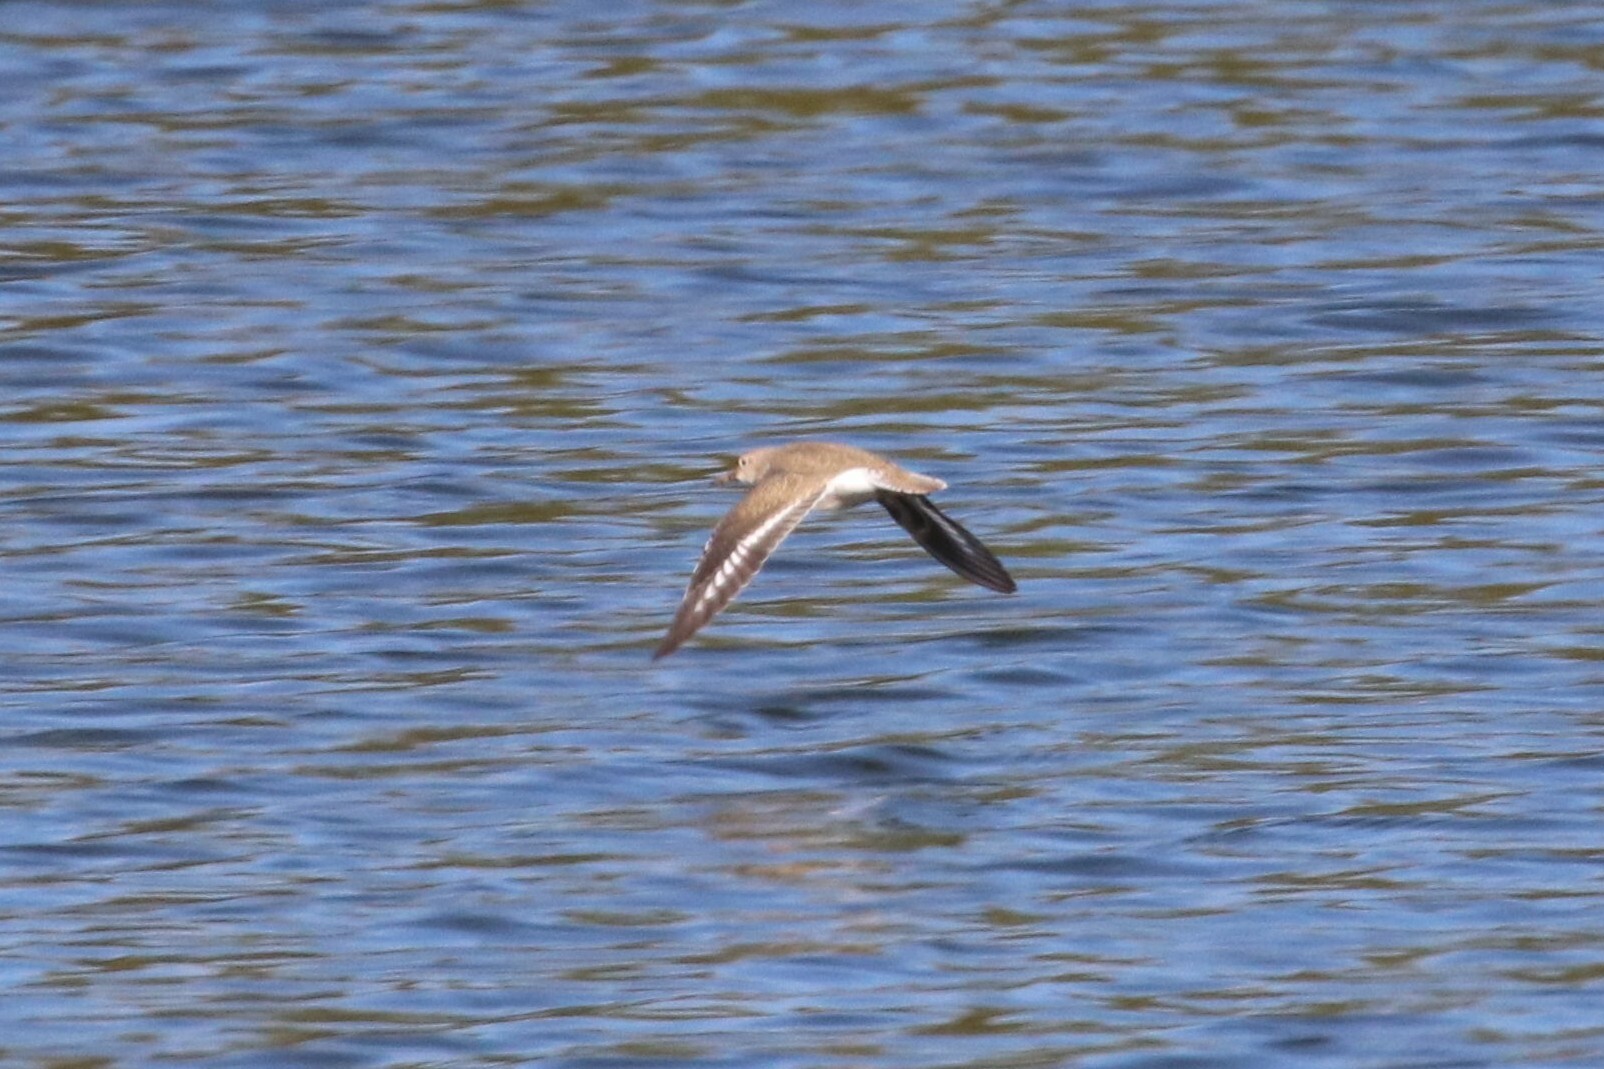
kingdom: Animalia
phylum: Chordata
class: Aves
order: Charadriiformes
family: Scolopacidae
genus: Actitis
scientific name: Actitis hypoleucos
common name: Common sandpiper
